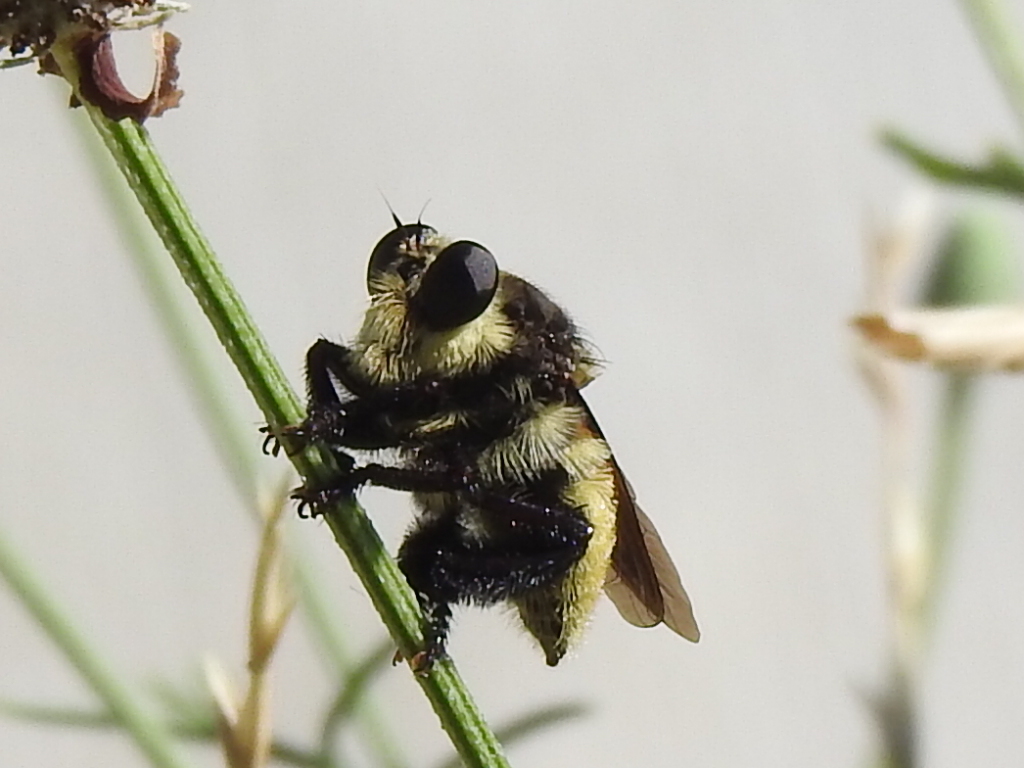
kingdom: Animalia
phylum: Arthropoda
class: Insecta
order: Diptera
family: Asilidae
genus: Mallophora
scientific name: Mallophora fautrix
